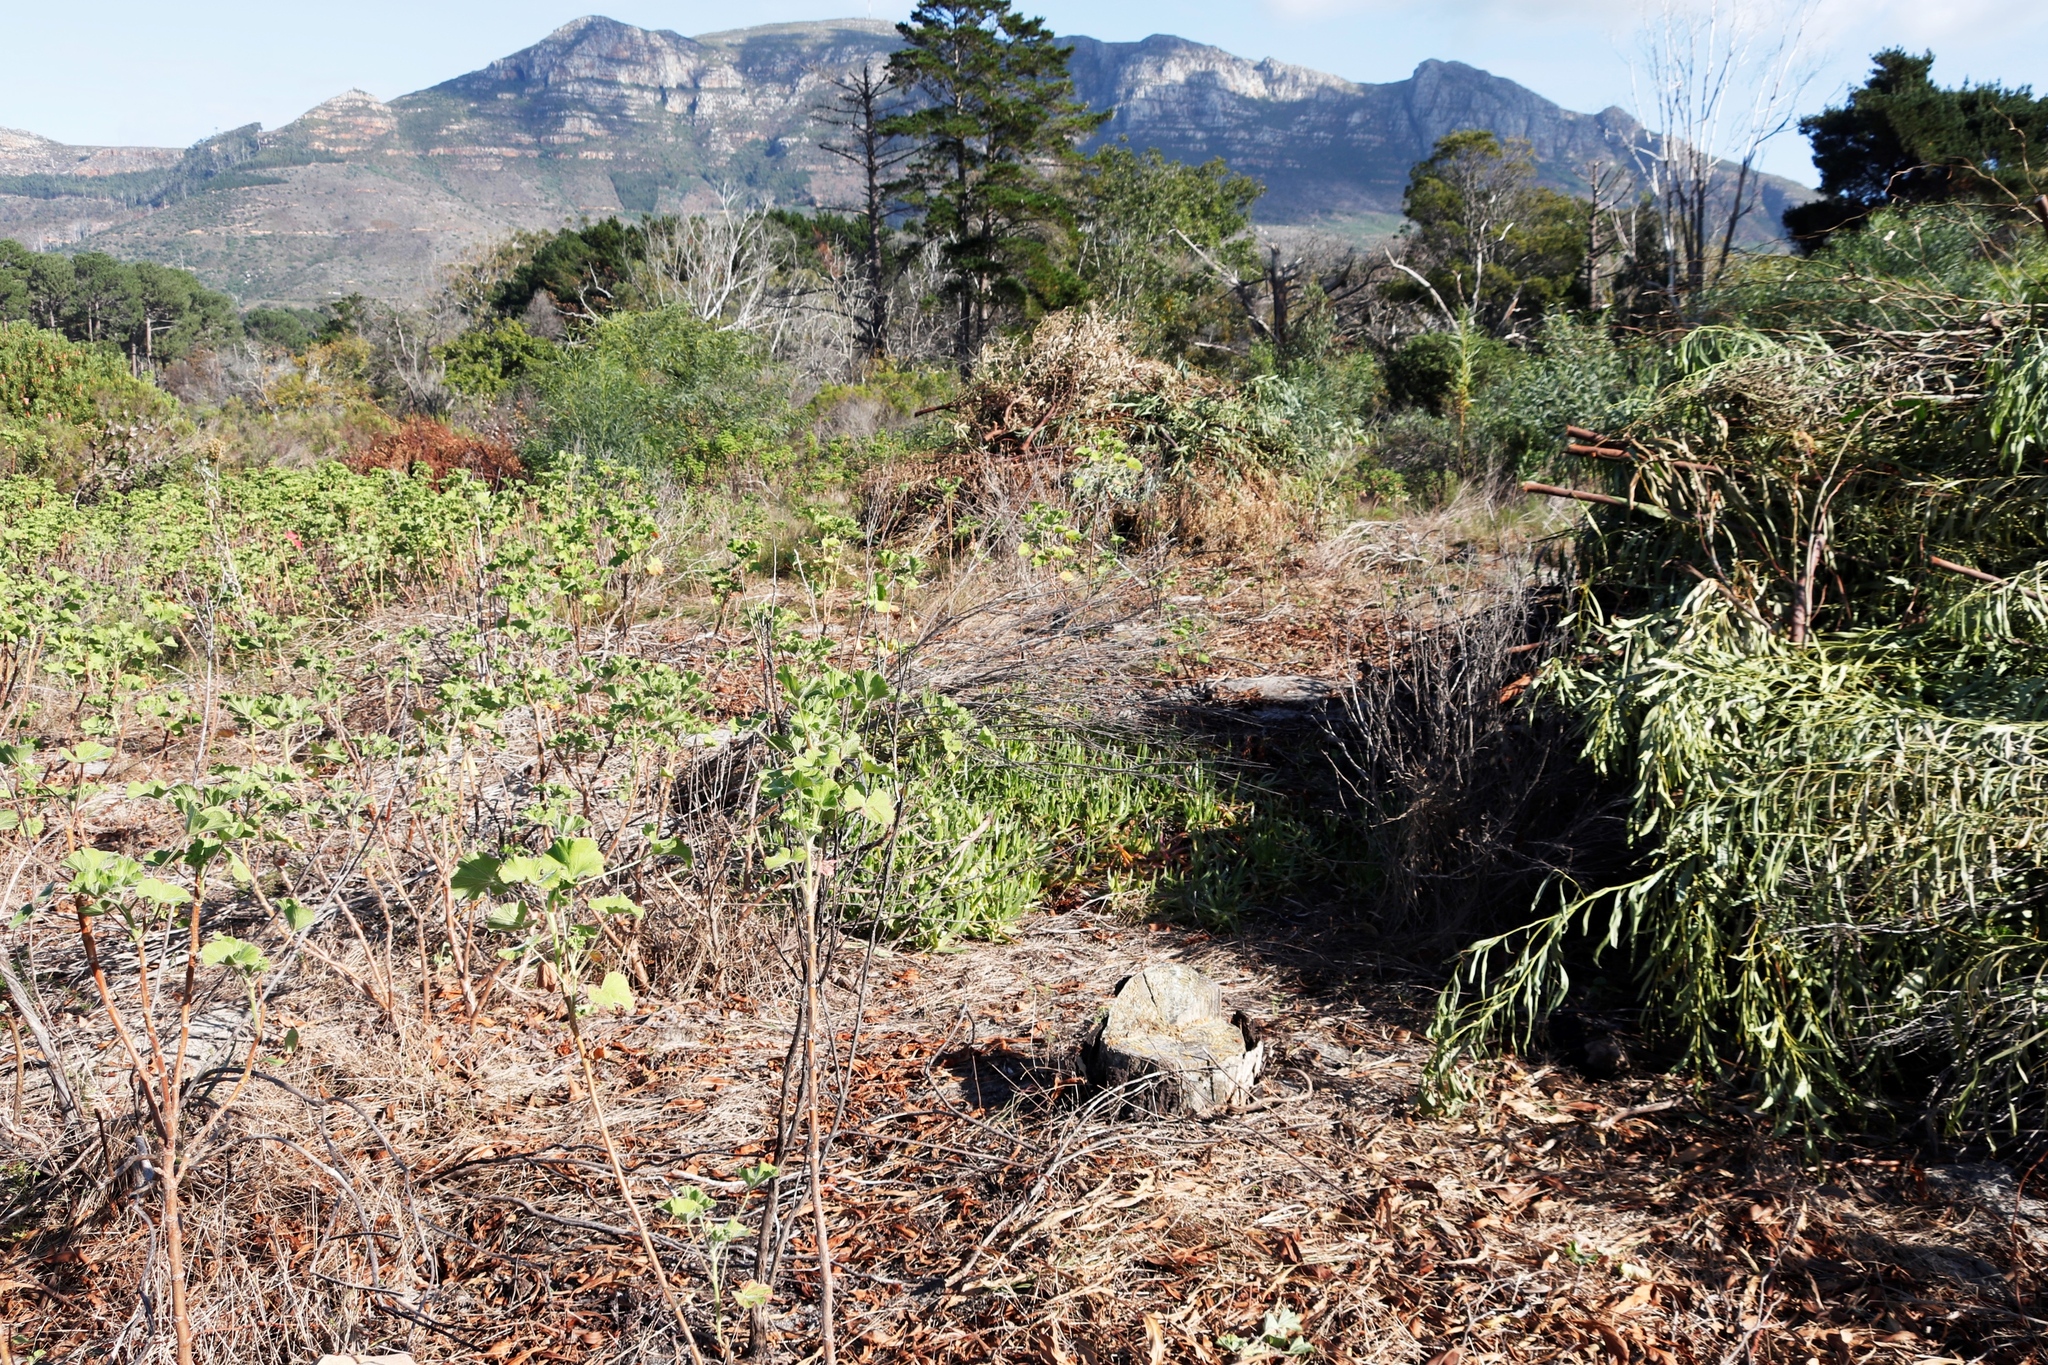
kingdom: Plantae
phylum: Tracheophyta
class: Magnoliopsida
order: Geraniales
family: Geraniaceae
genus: Pelargonium
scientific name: Pelargonium cucullatum
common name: Tree pelargonium
